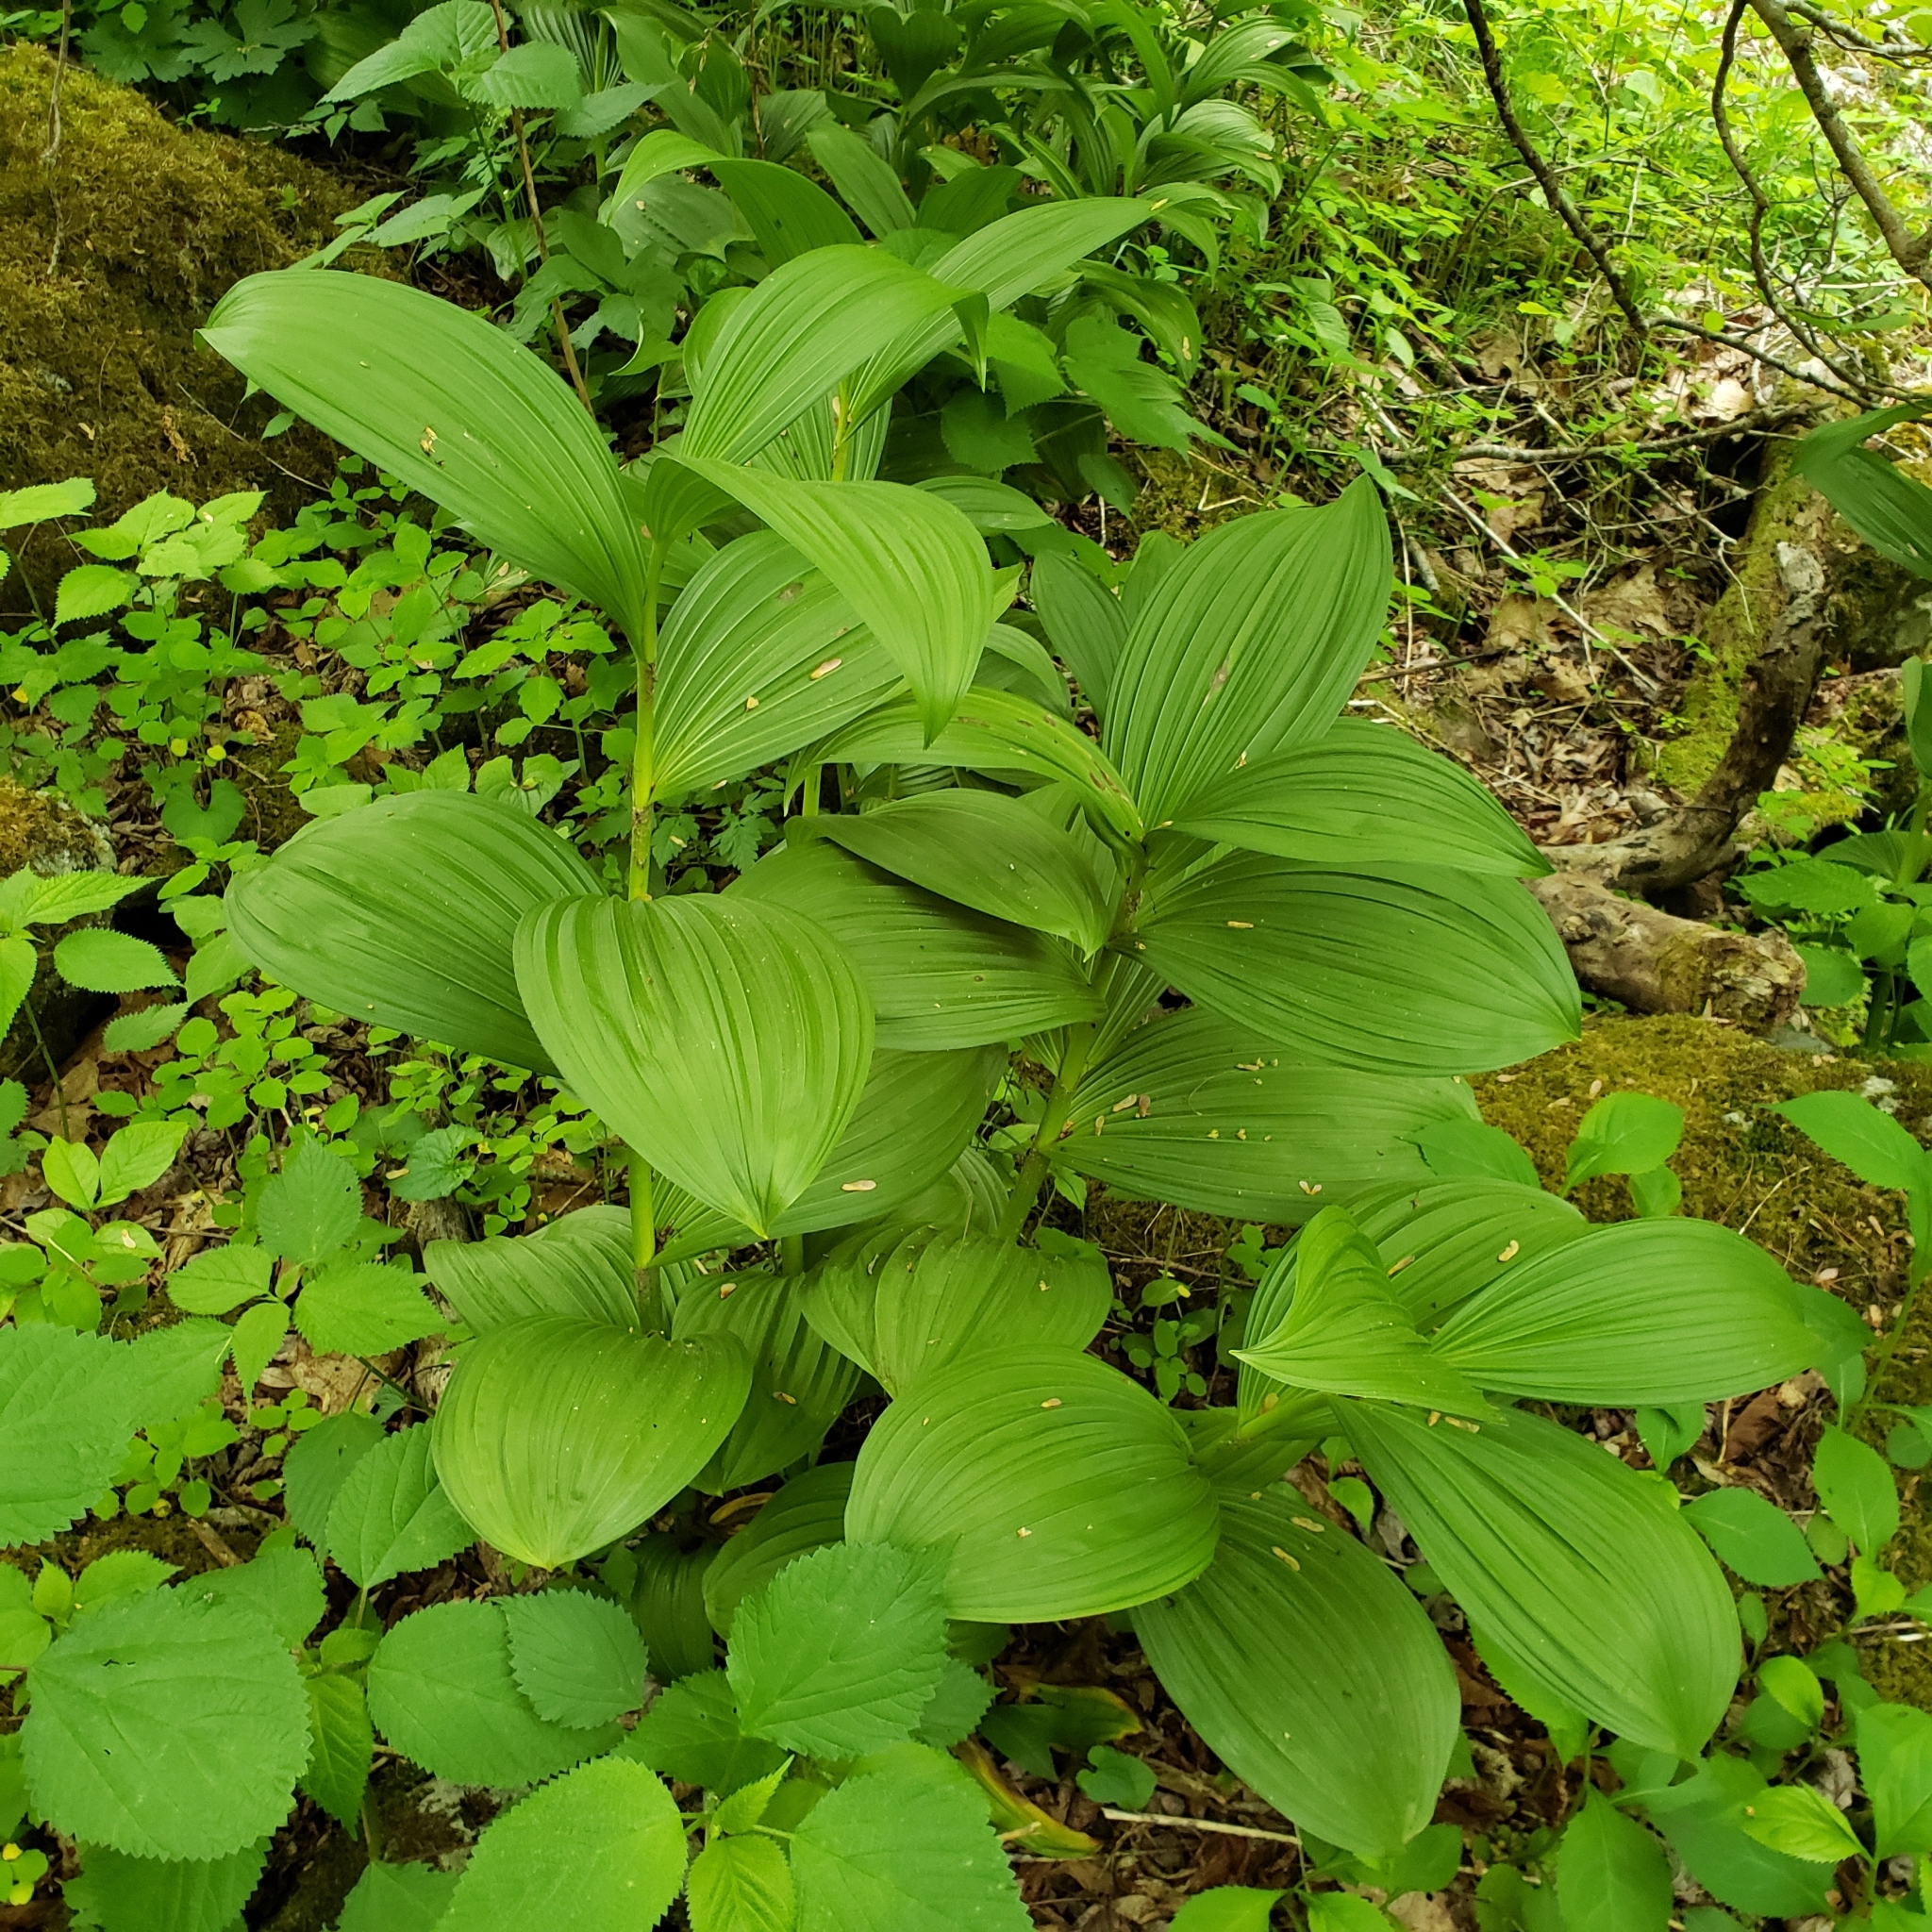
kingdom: Plantae
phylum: Tracheophyta
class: Liliopsida
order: Liliales
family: Melanthiaceae
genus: Veratrum
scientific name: Veratrum viride
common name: American false hellebore
